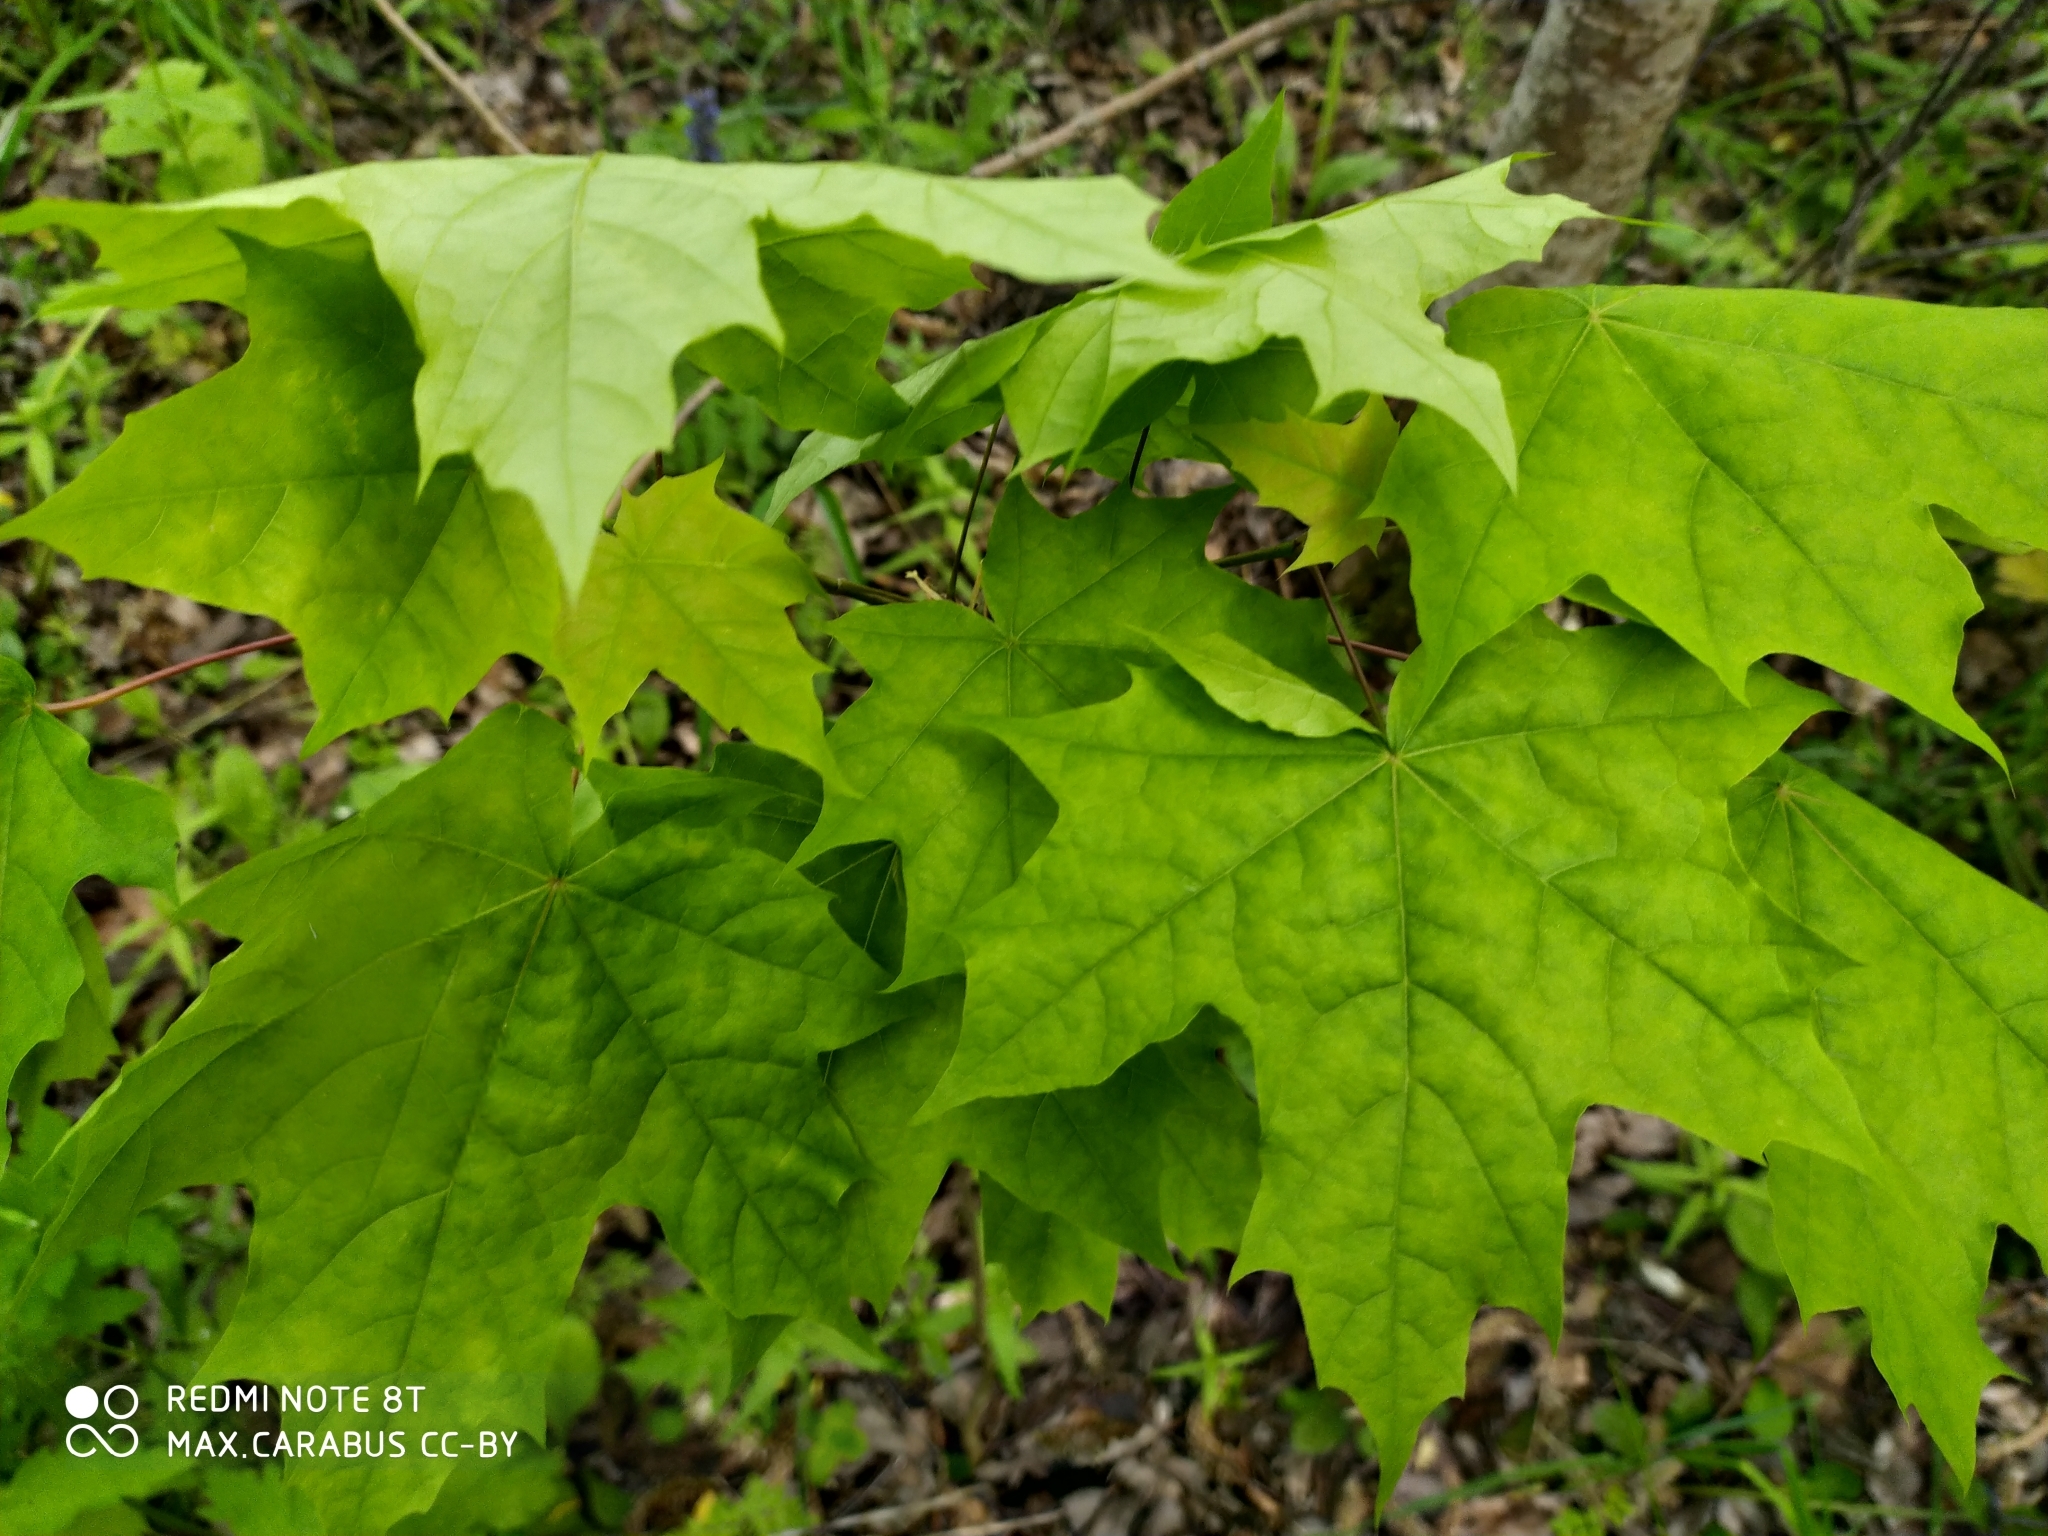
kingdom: Plantae
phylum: Tracheophyta
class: Magnoliopsida
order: Sapindales
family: Sapindaceae
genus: Acer
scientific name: Acer platanoides
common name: Norway maple
